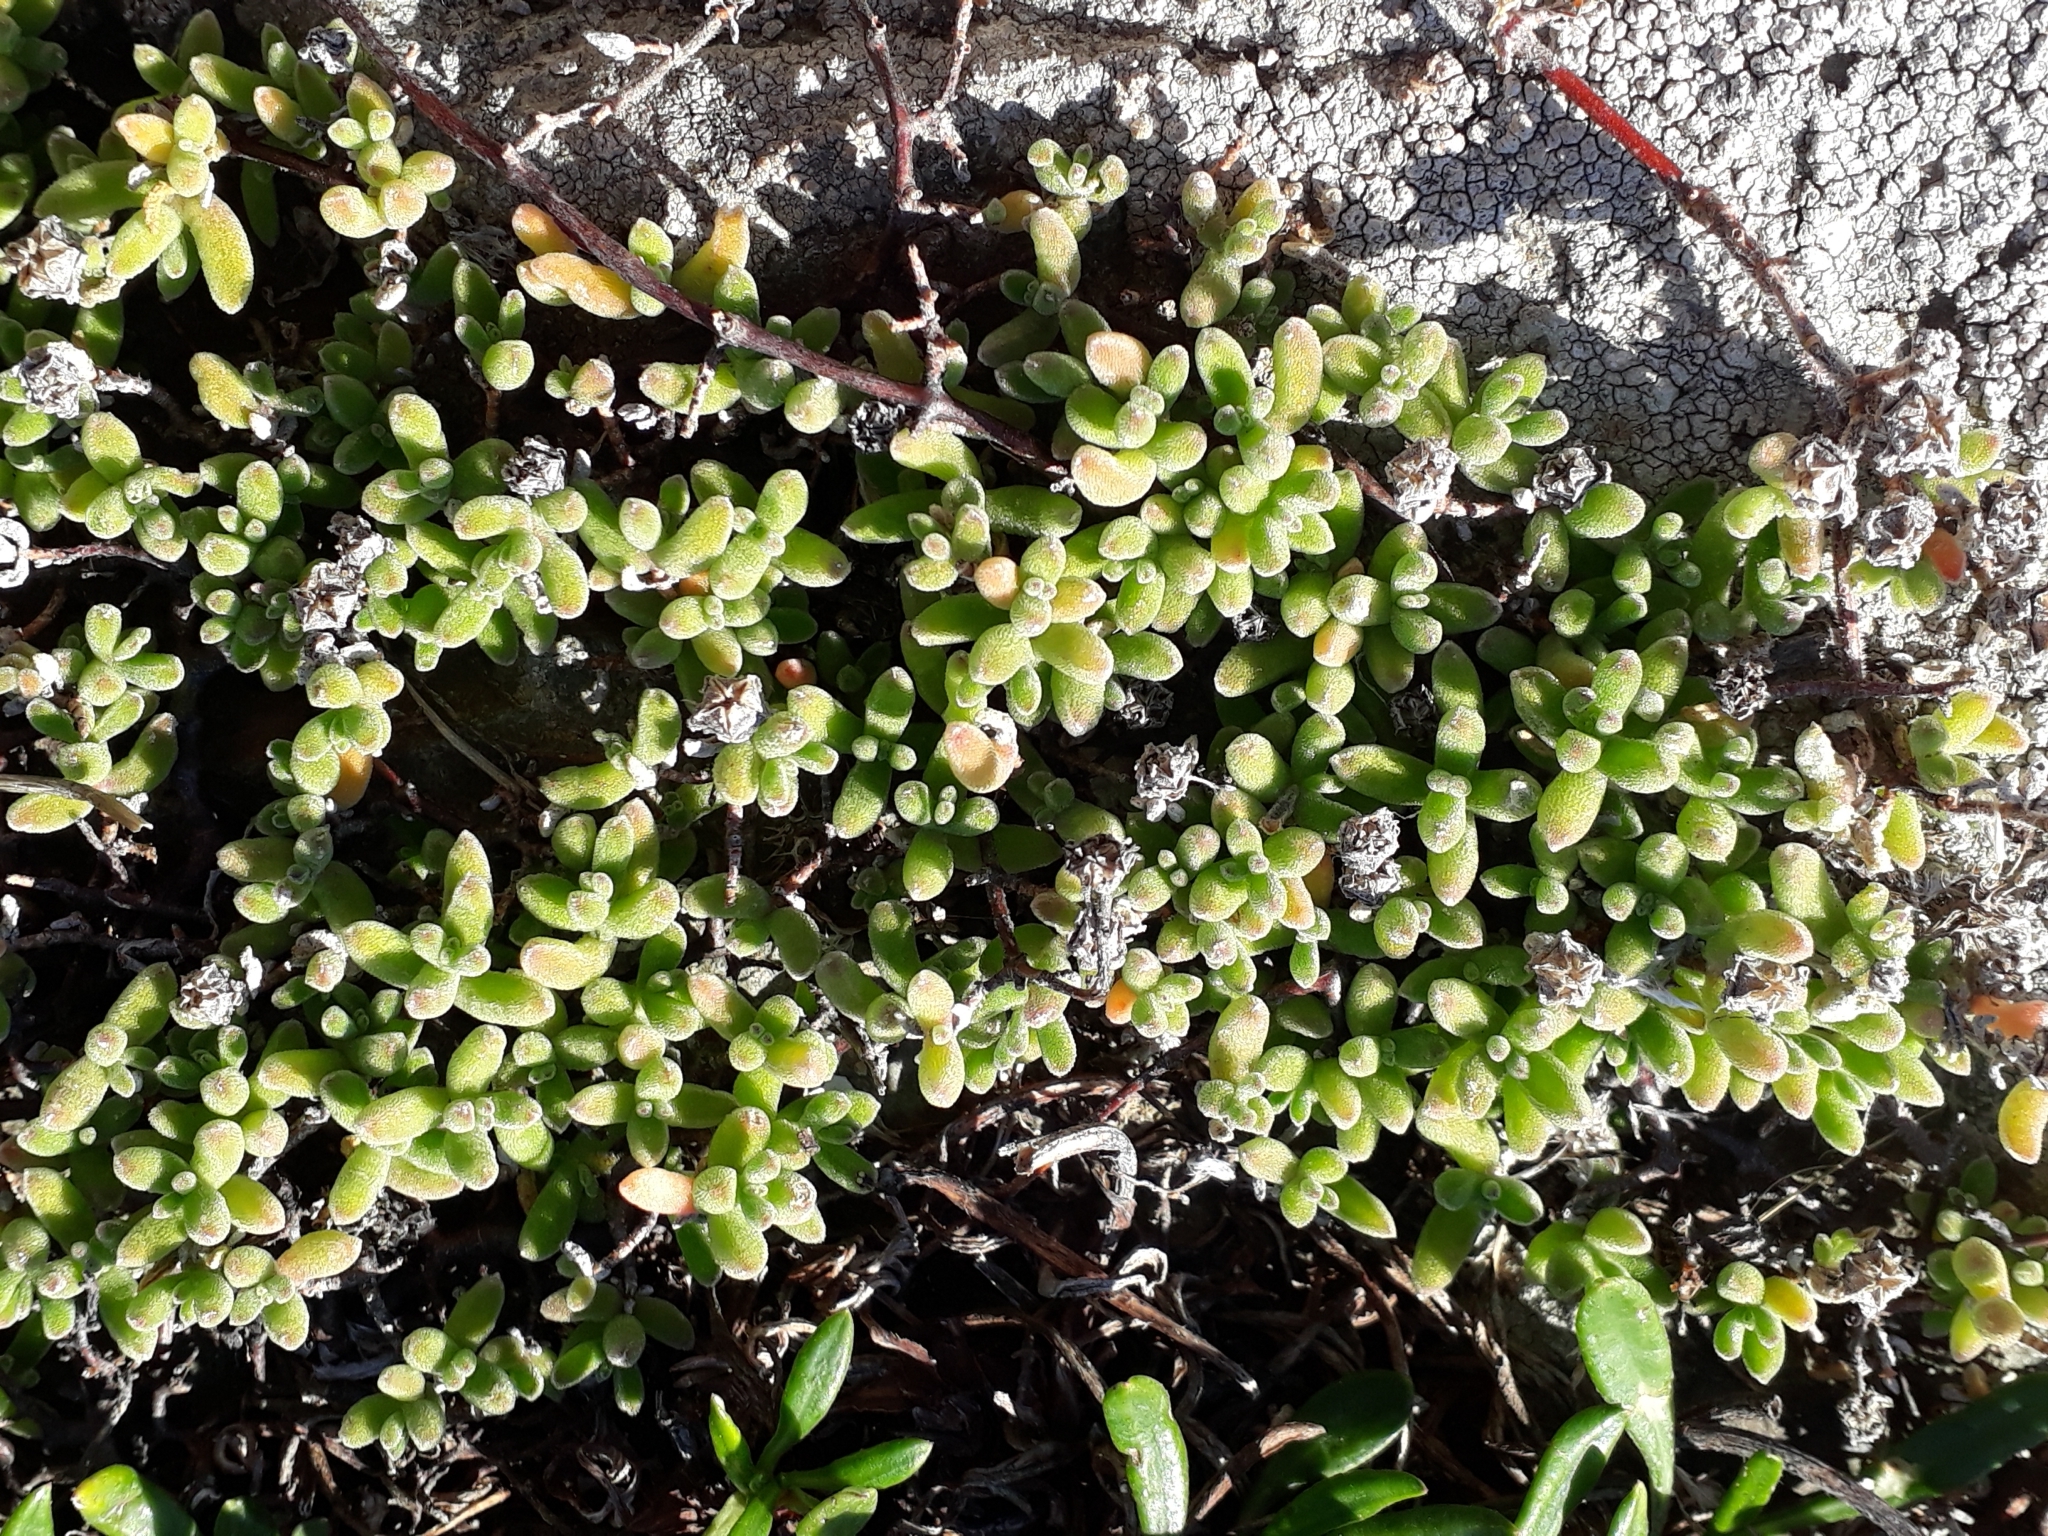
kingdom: Plantae
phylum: Tracheophyta
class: Magnoliopsida
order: Caryophyllales
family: Aizoaceae
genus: Drosanthemum
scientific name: Drosanthemum floribundum
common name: Pale dewplant
